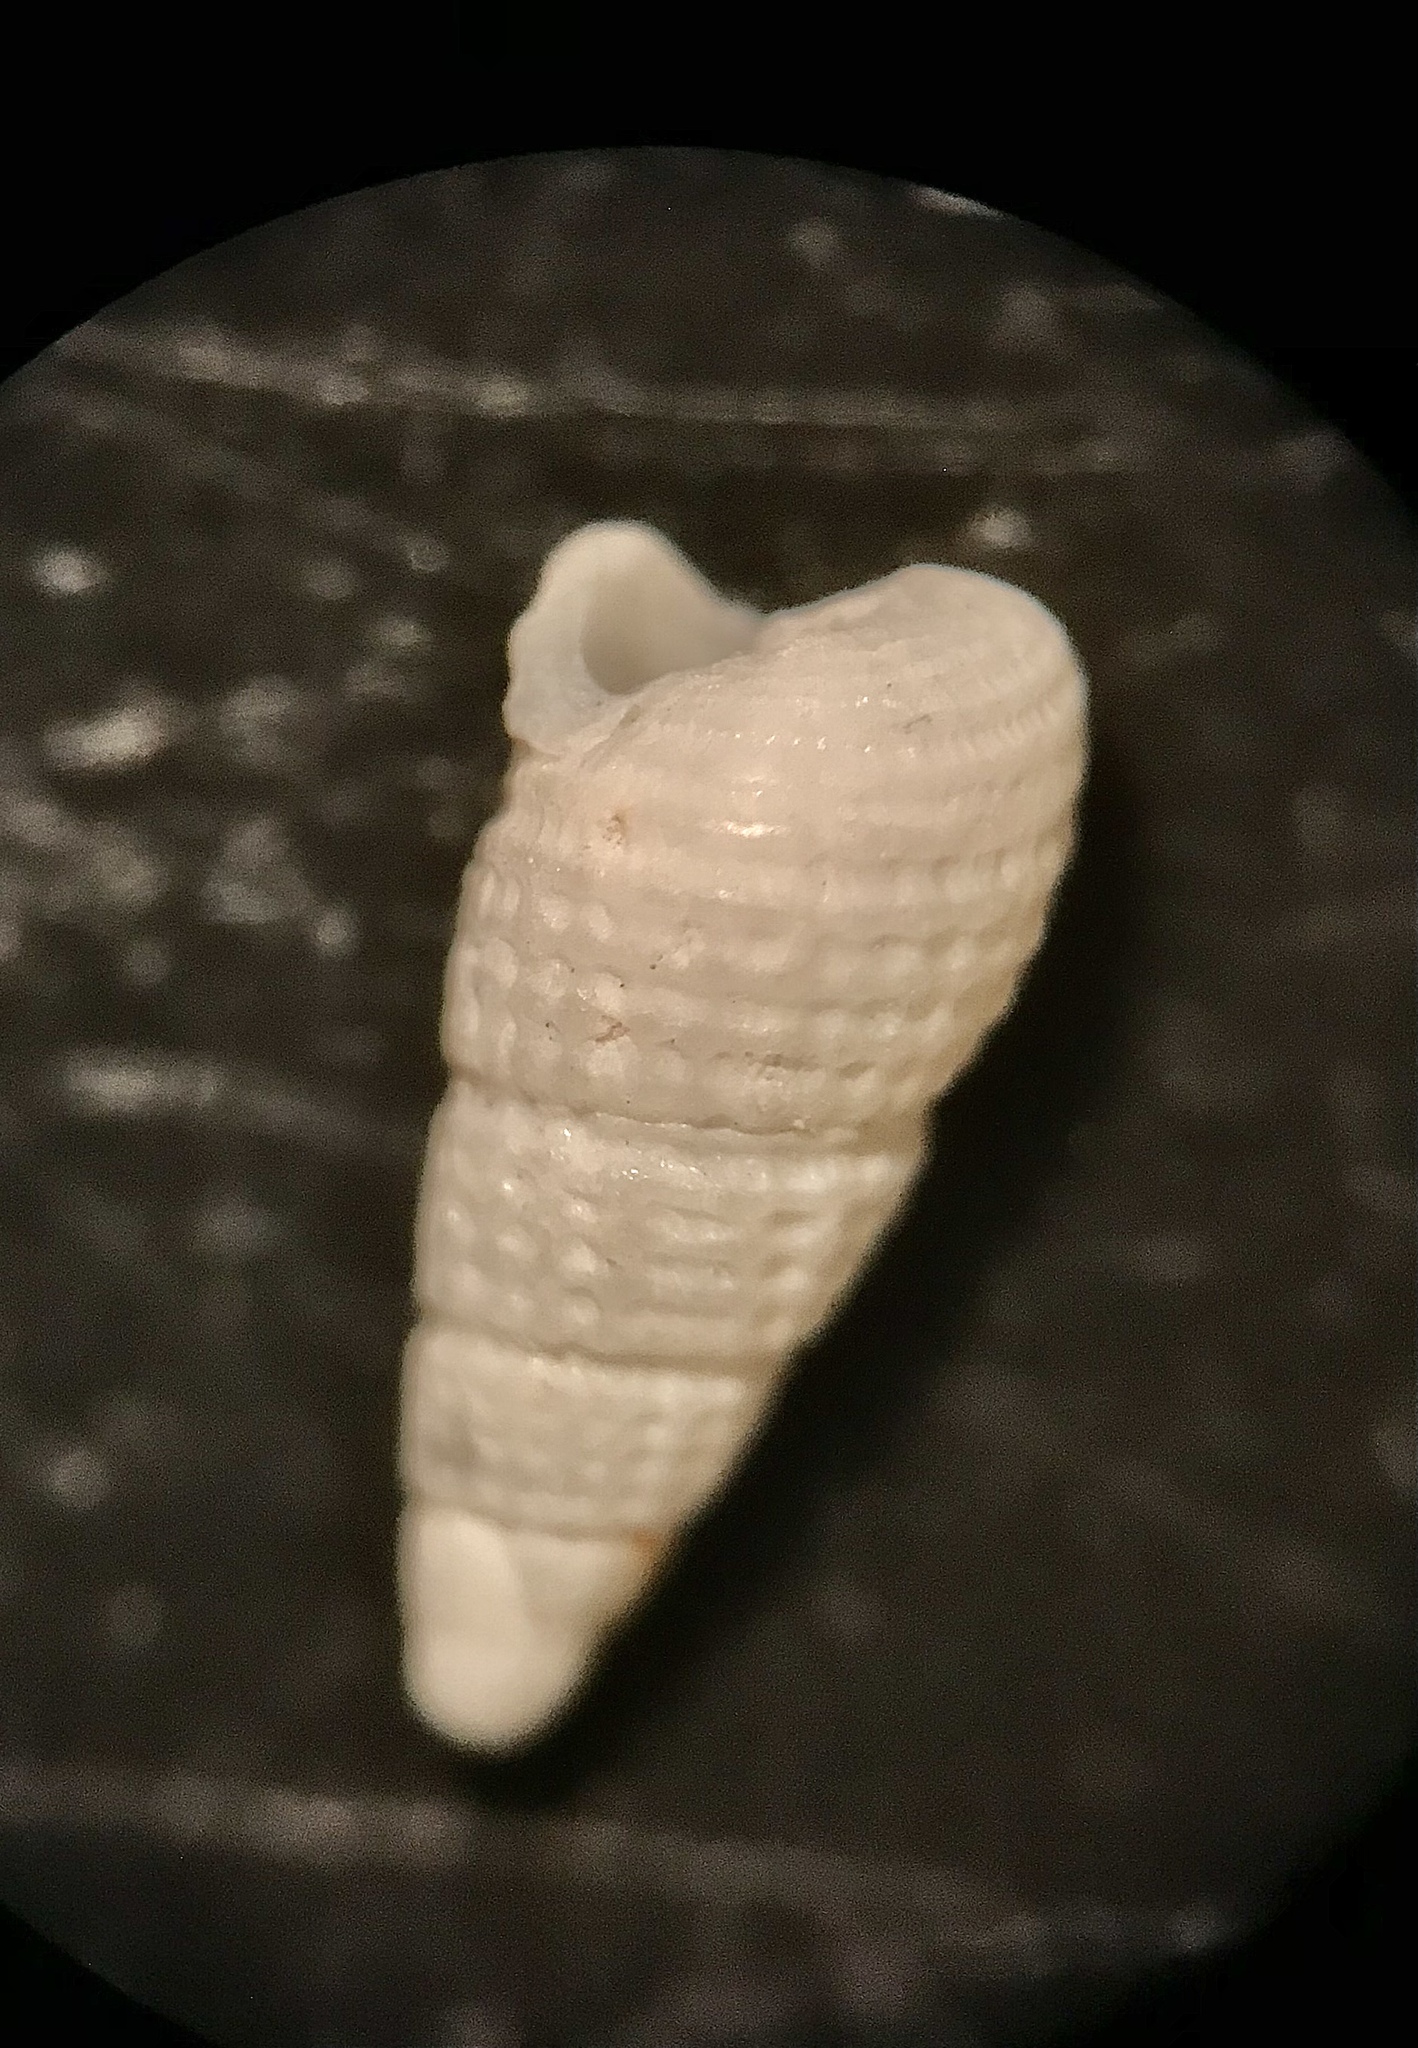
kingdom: Animalia
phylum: Mollusca
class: Gastropoda
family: Pyramidellidae
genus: Boonea
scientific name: Boonea seminuda
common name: Half-smooth odostome
